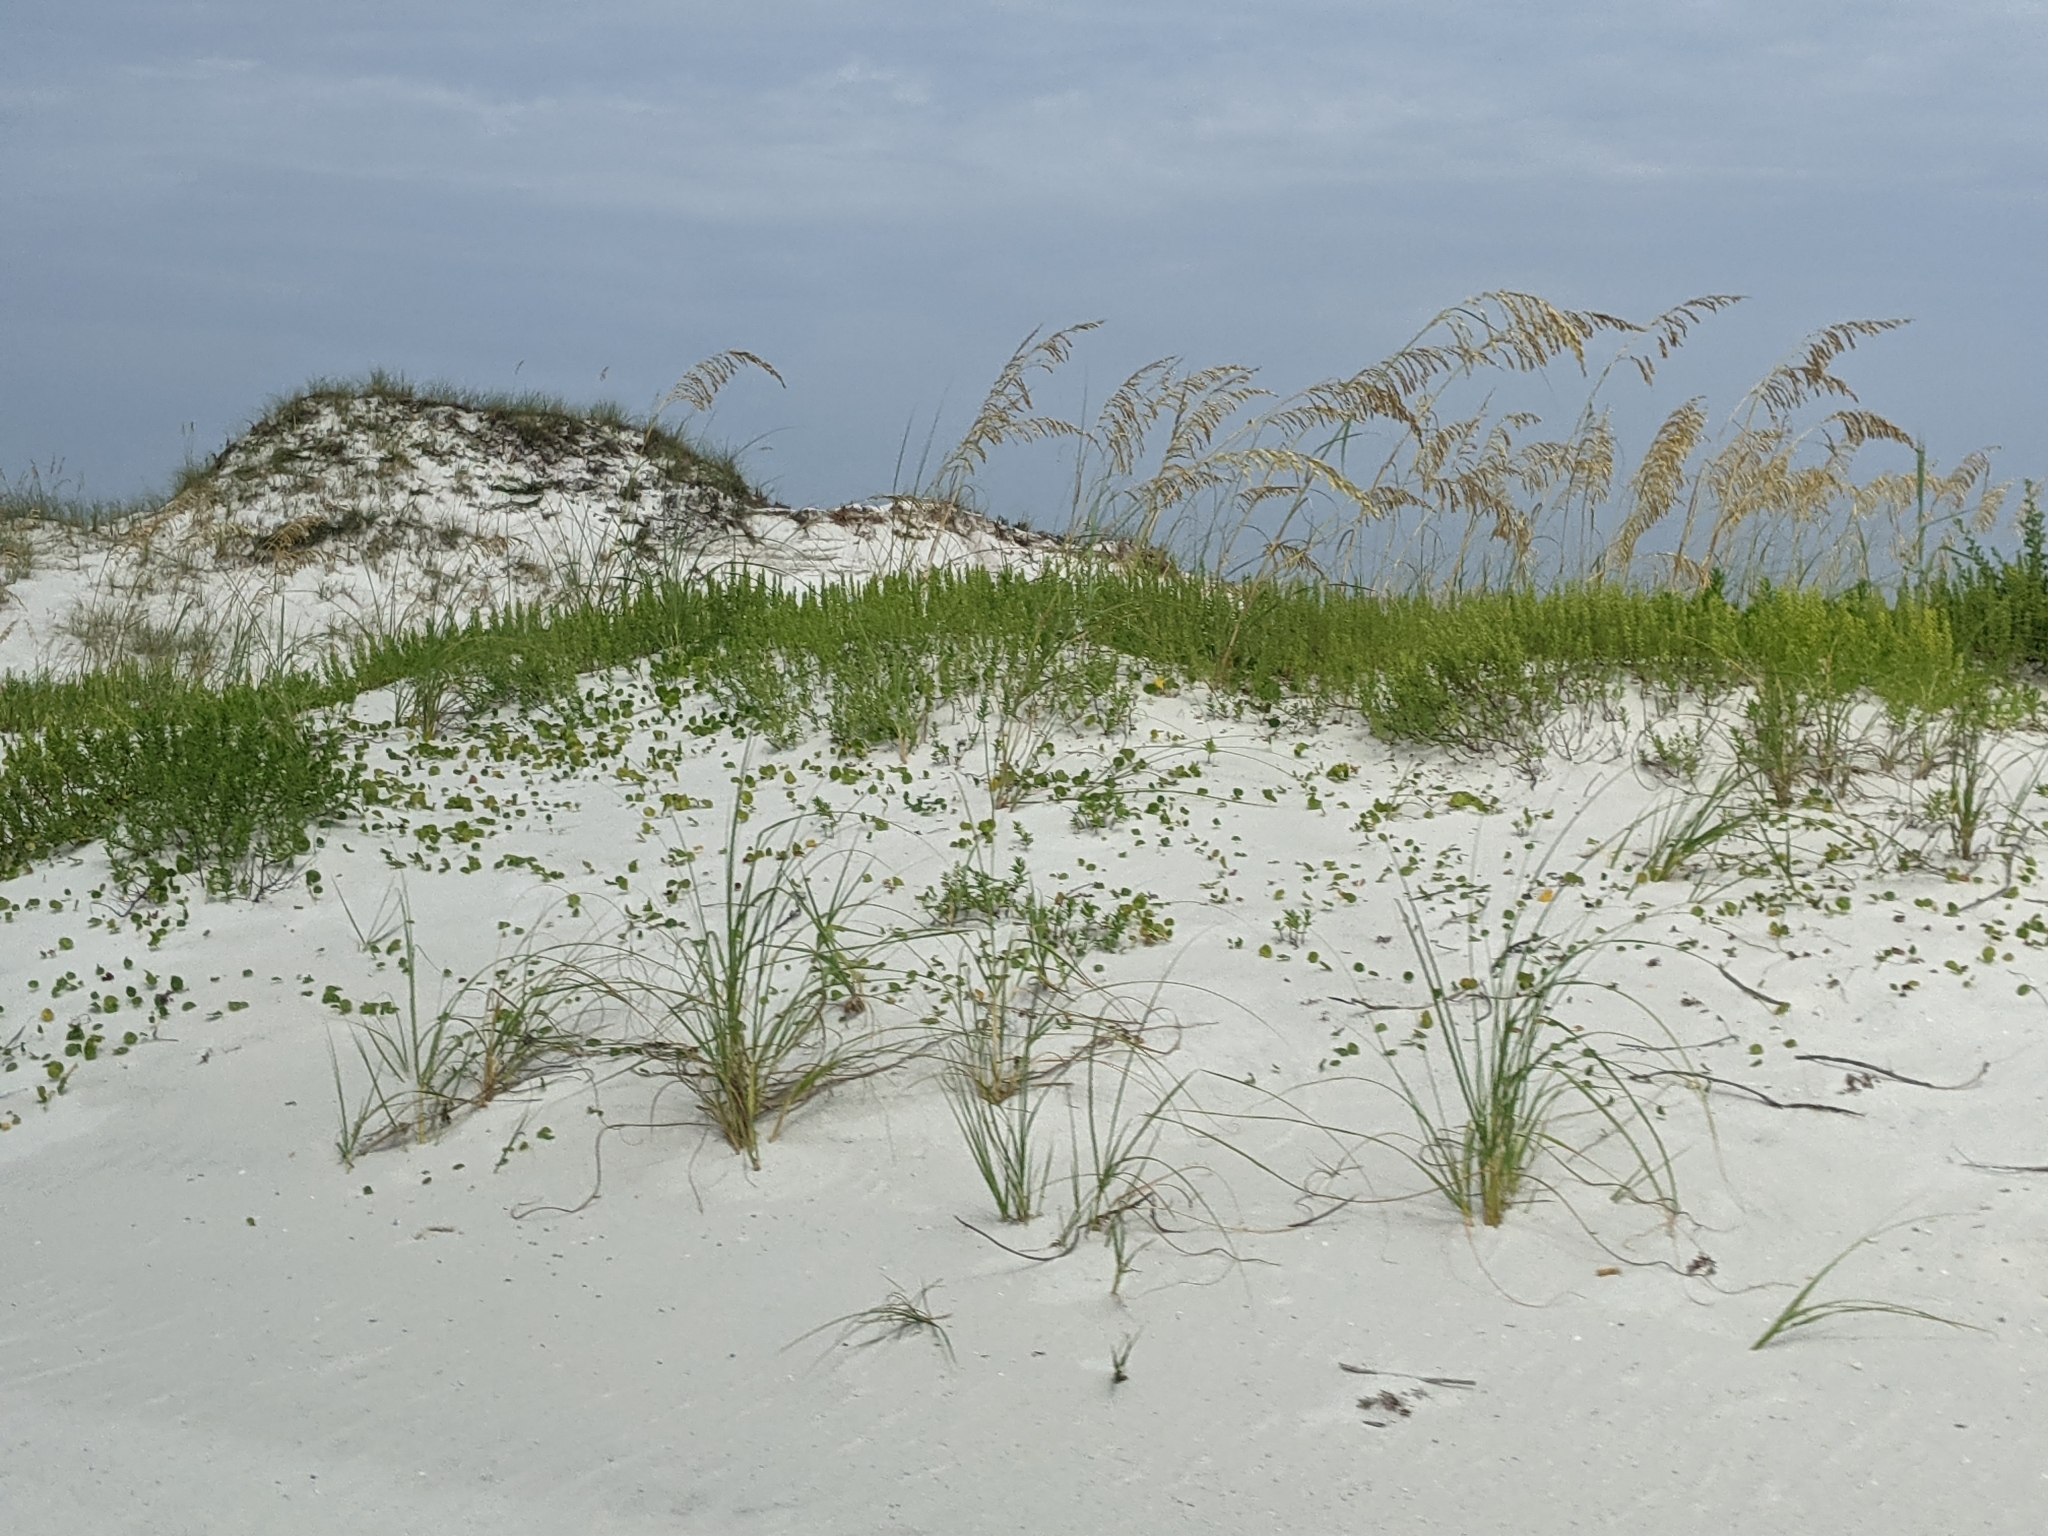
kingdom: Plantae
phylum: Tracheophyta
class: Liliopsida
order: Poales
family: Poaceae
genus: Uniola
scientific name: Uniola paniculata
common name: Seaside-oats
